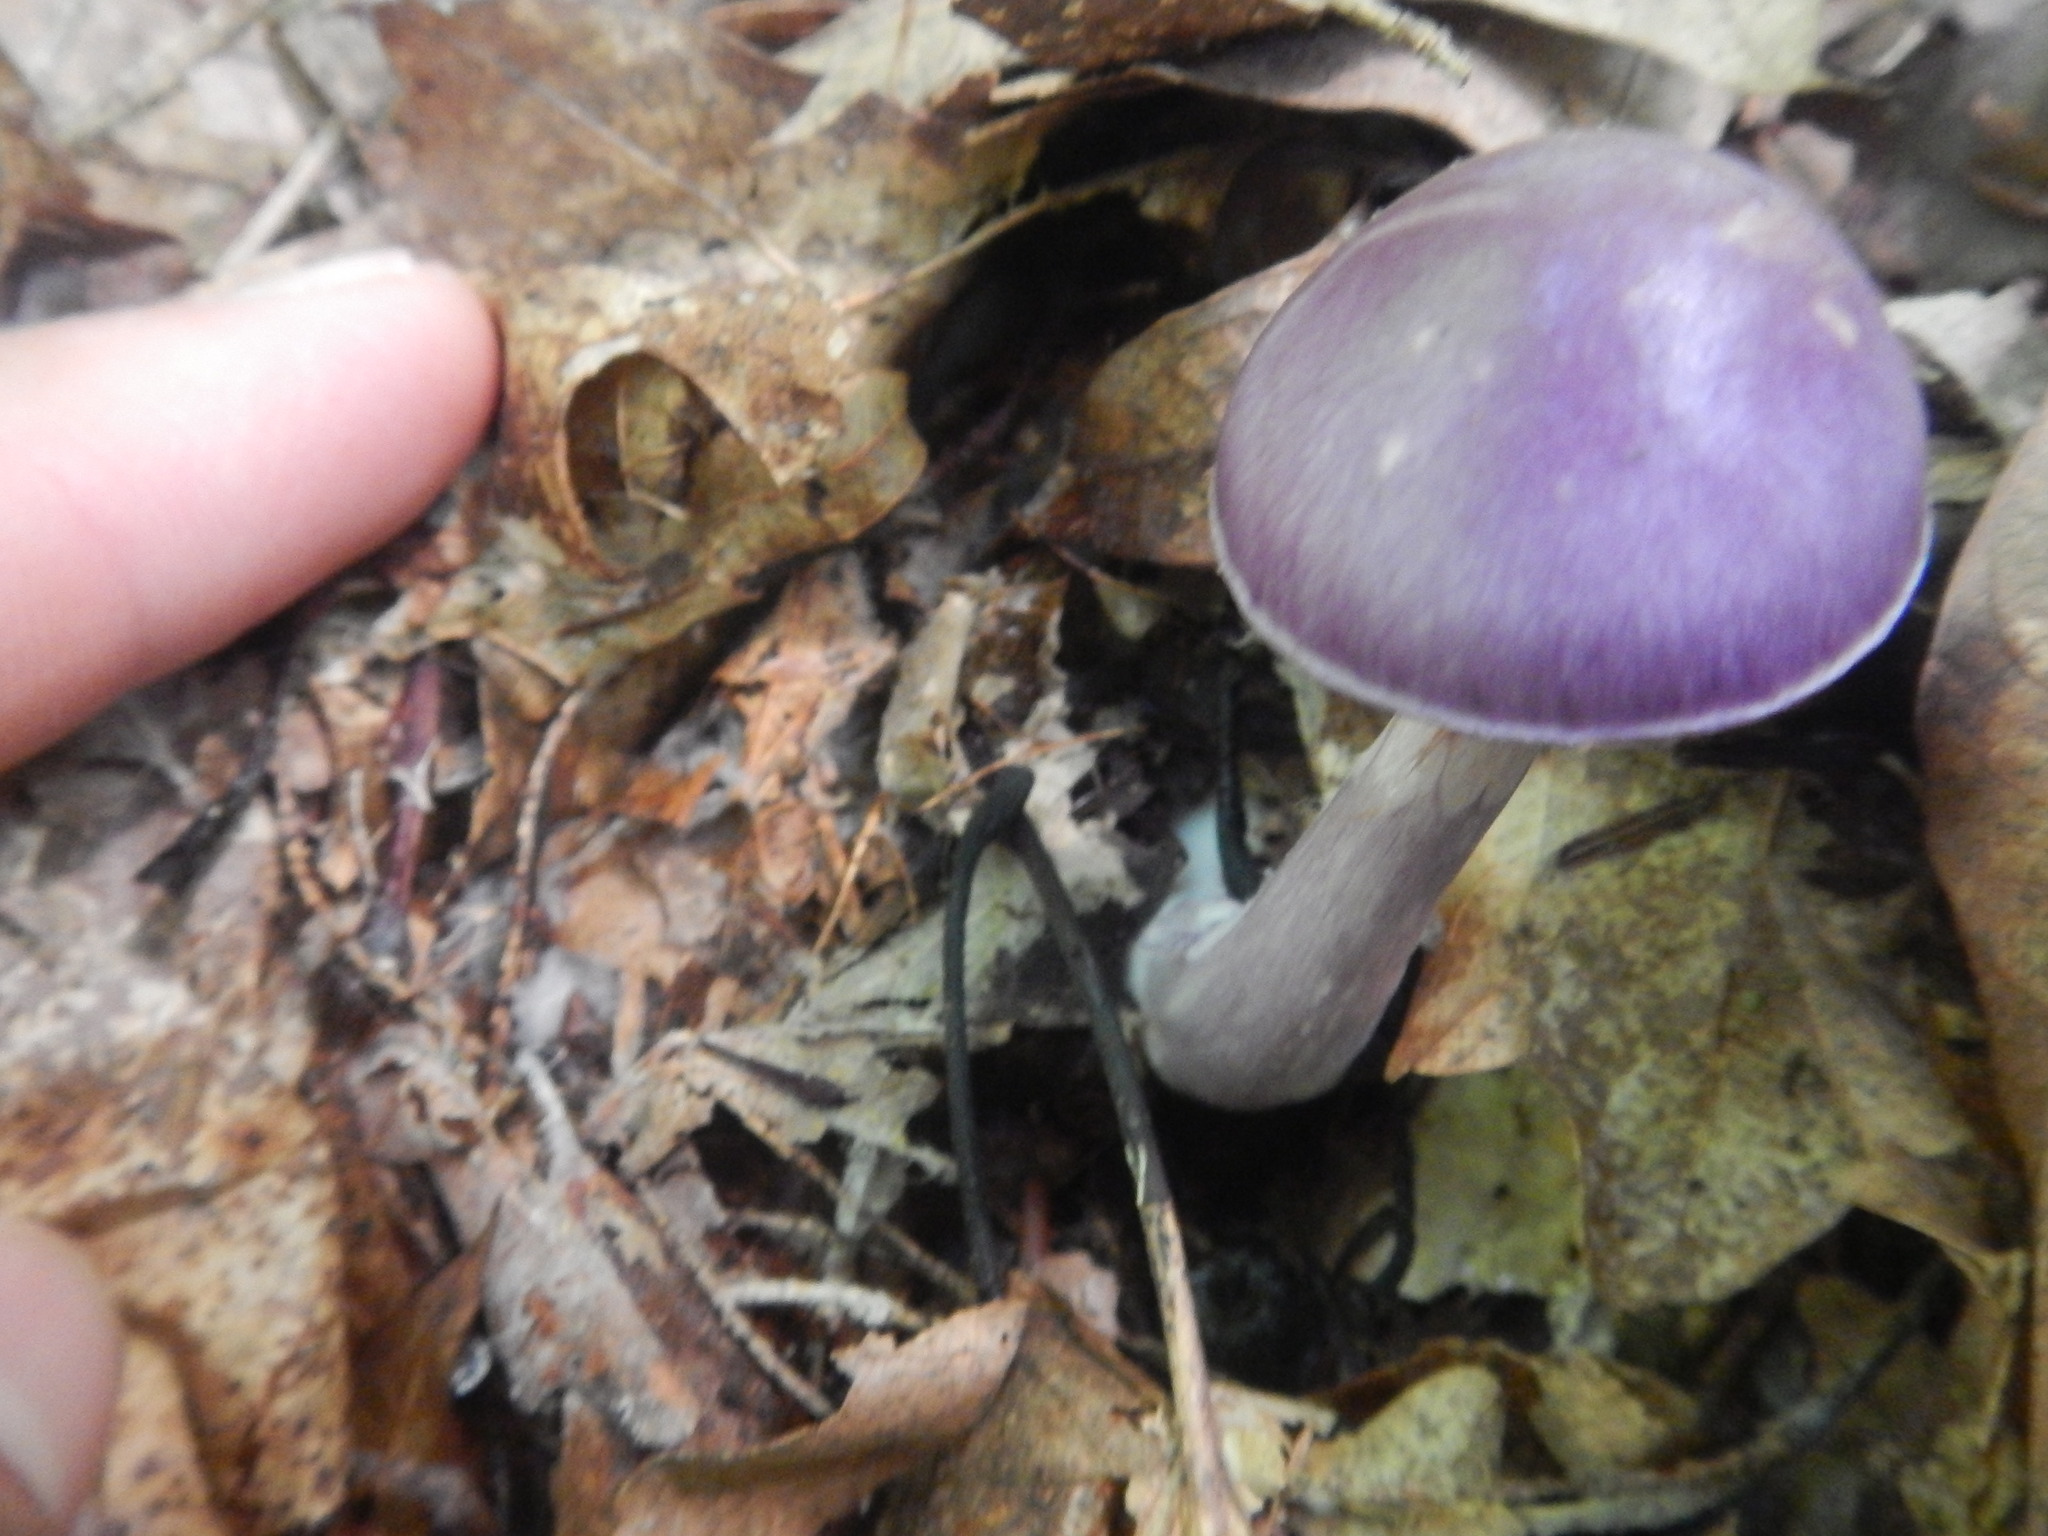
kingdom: Fungi
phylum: Basidiomycota
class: Agaricomycetes
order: Agaricales
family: Cortinariaceae
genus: Cortinarius
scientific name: Cortinarius iodes
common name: Viscid violet cort
